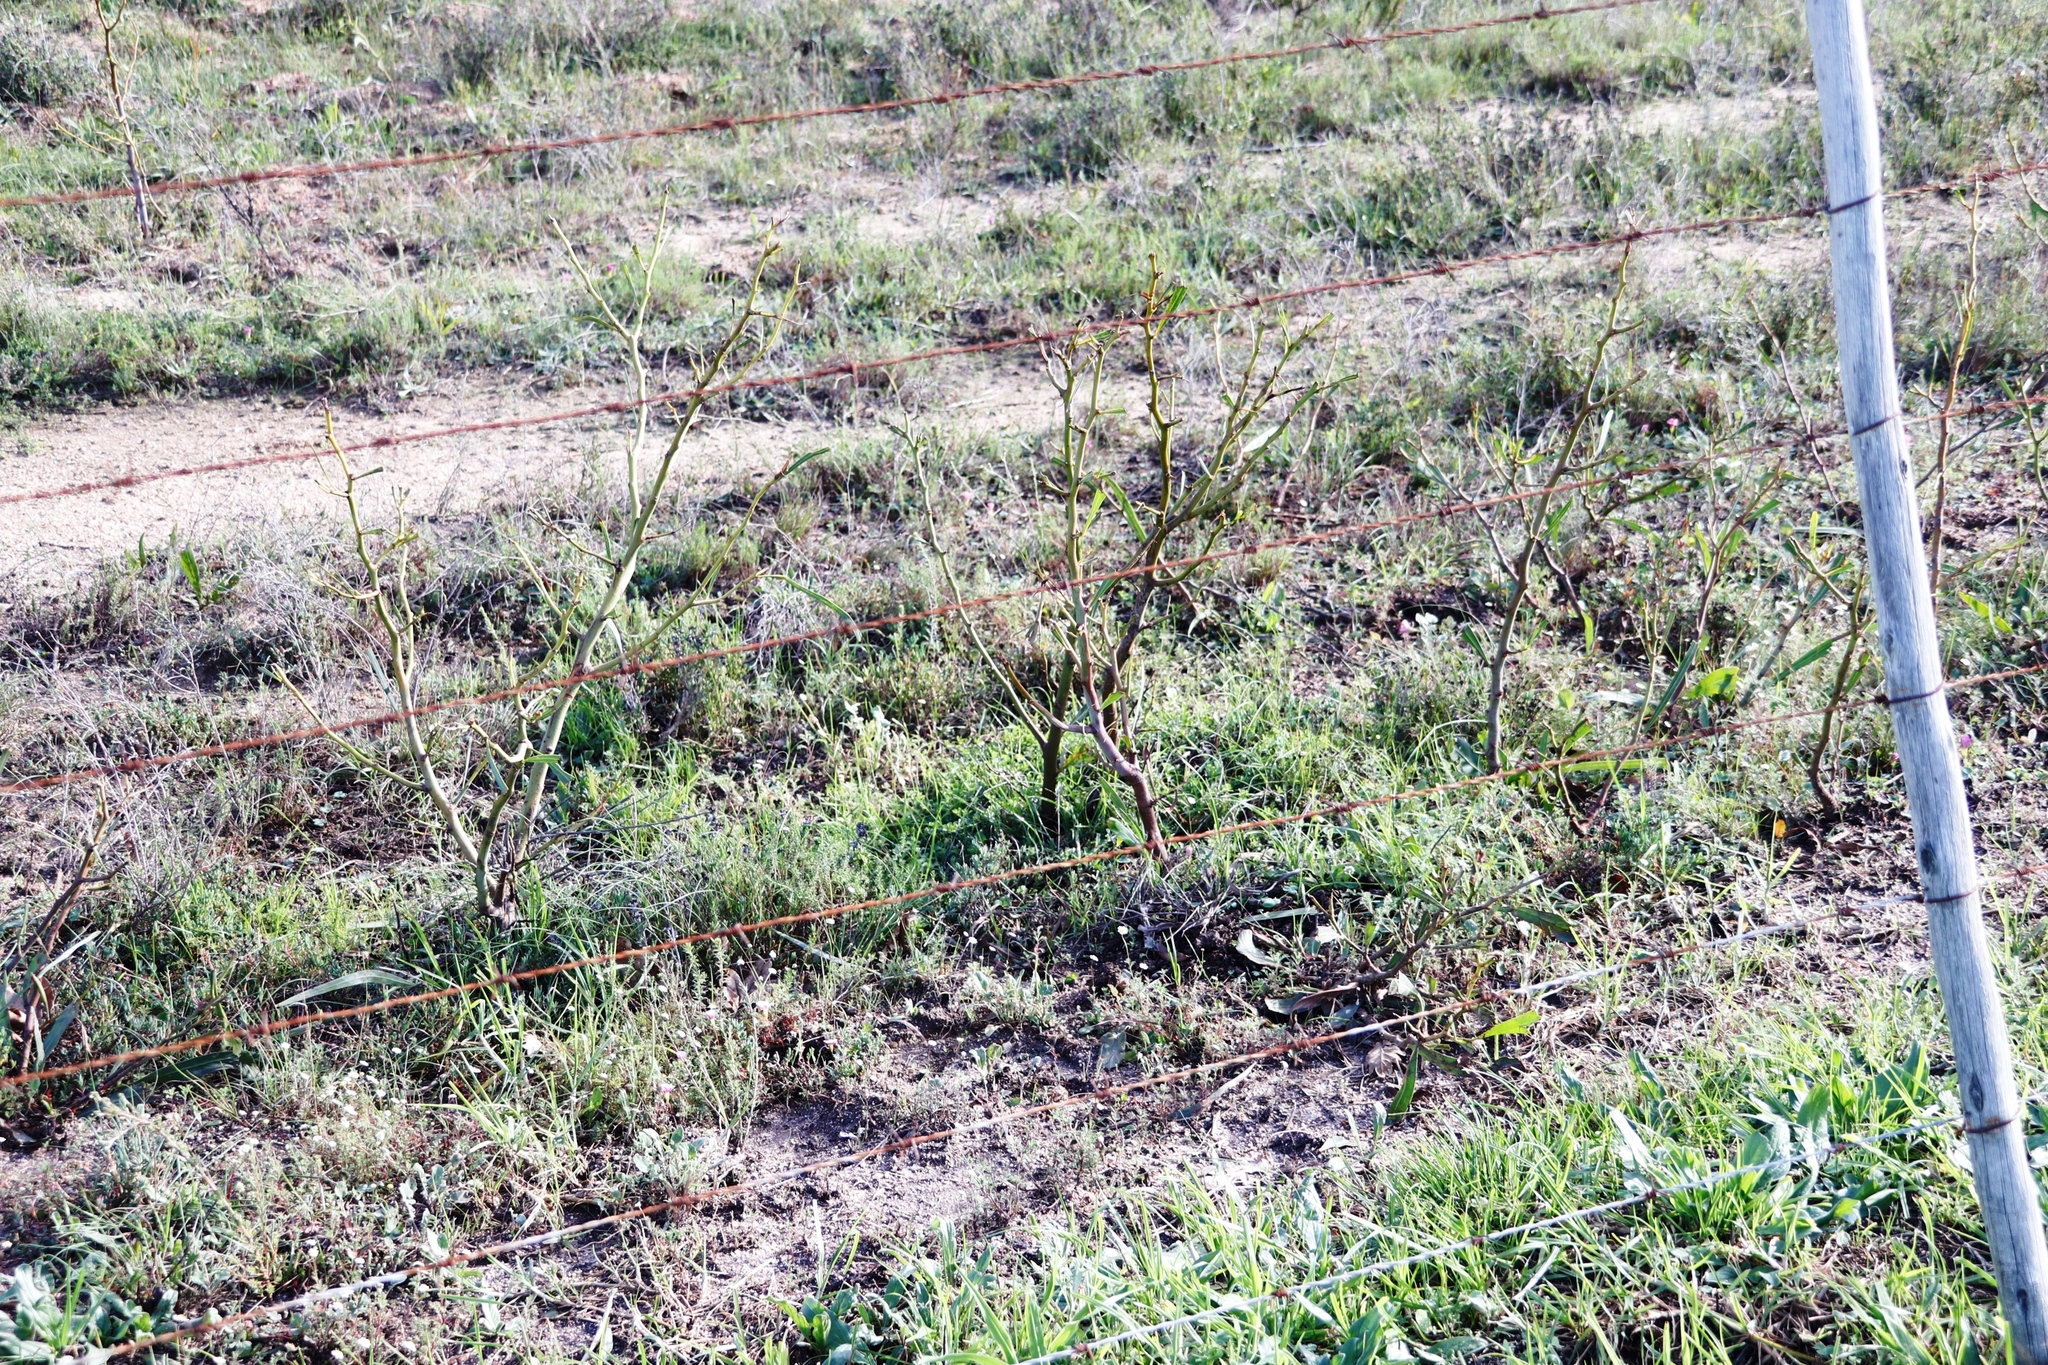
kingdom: Plantae
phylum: Tracheophyta
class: Magnoliopsida
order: Fabales
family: Fabaceae
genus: Acacia
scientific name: Acacia saligna
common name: Orange wattle
